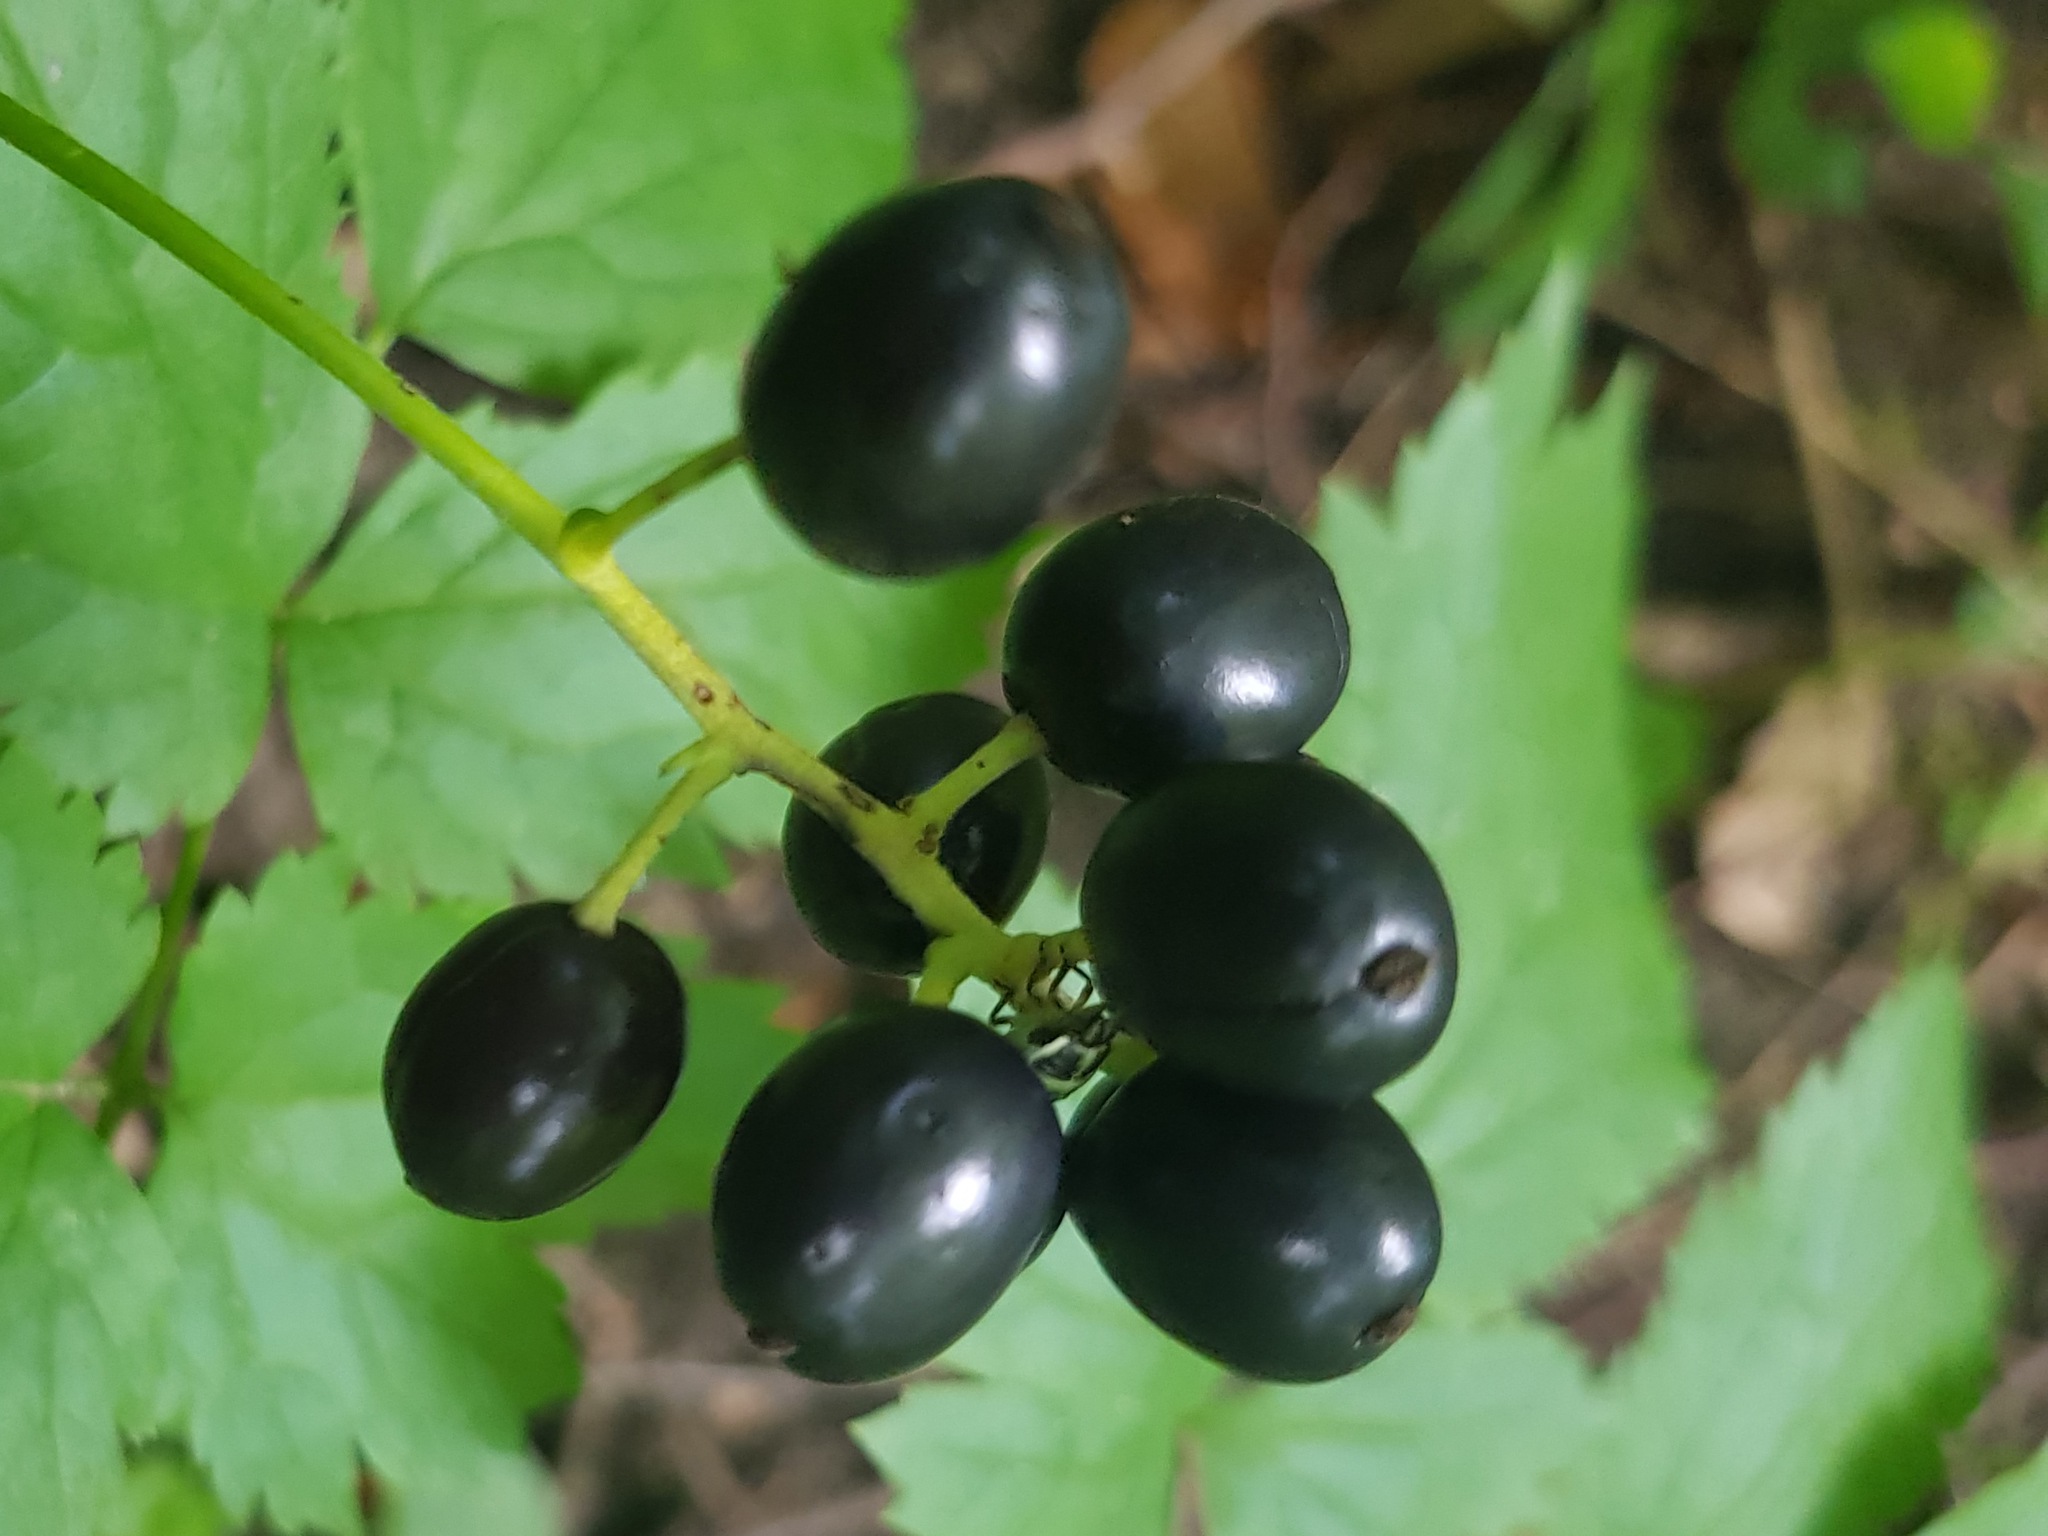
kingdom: Plantae
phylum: Tracheophyta
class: Magnoliopsida
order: Ranunculales
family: Ranunculaceae
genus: Actaea
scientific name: Actaea spicata
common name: Baneberry
